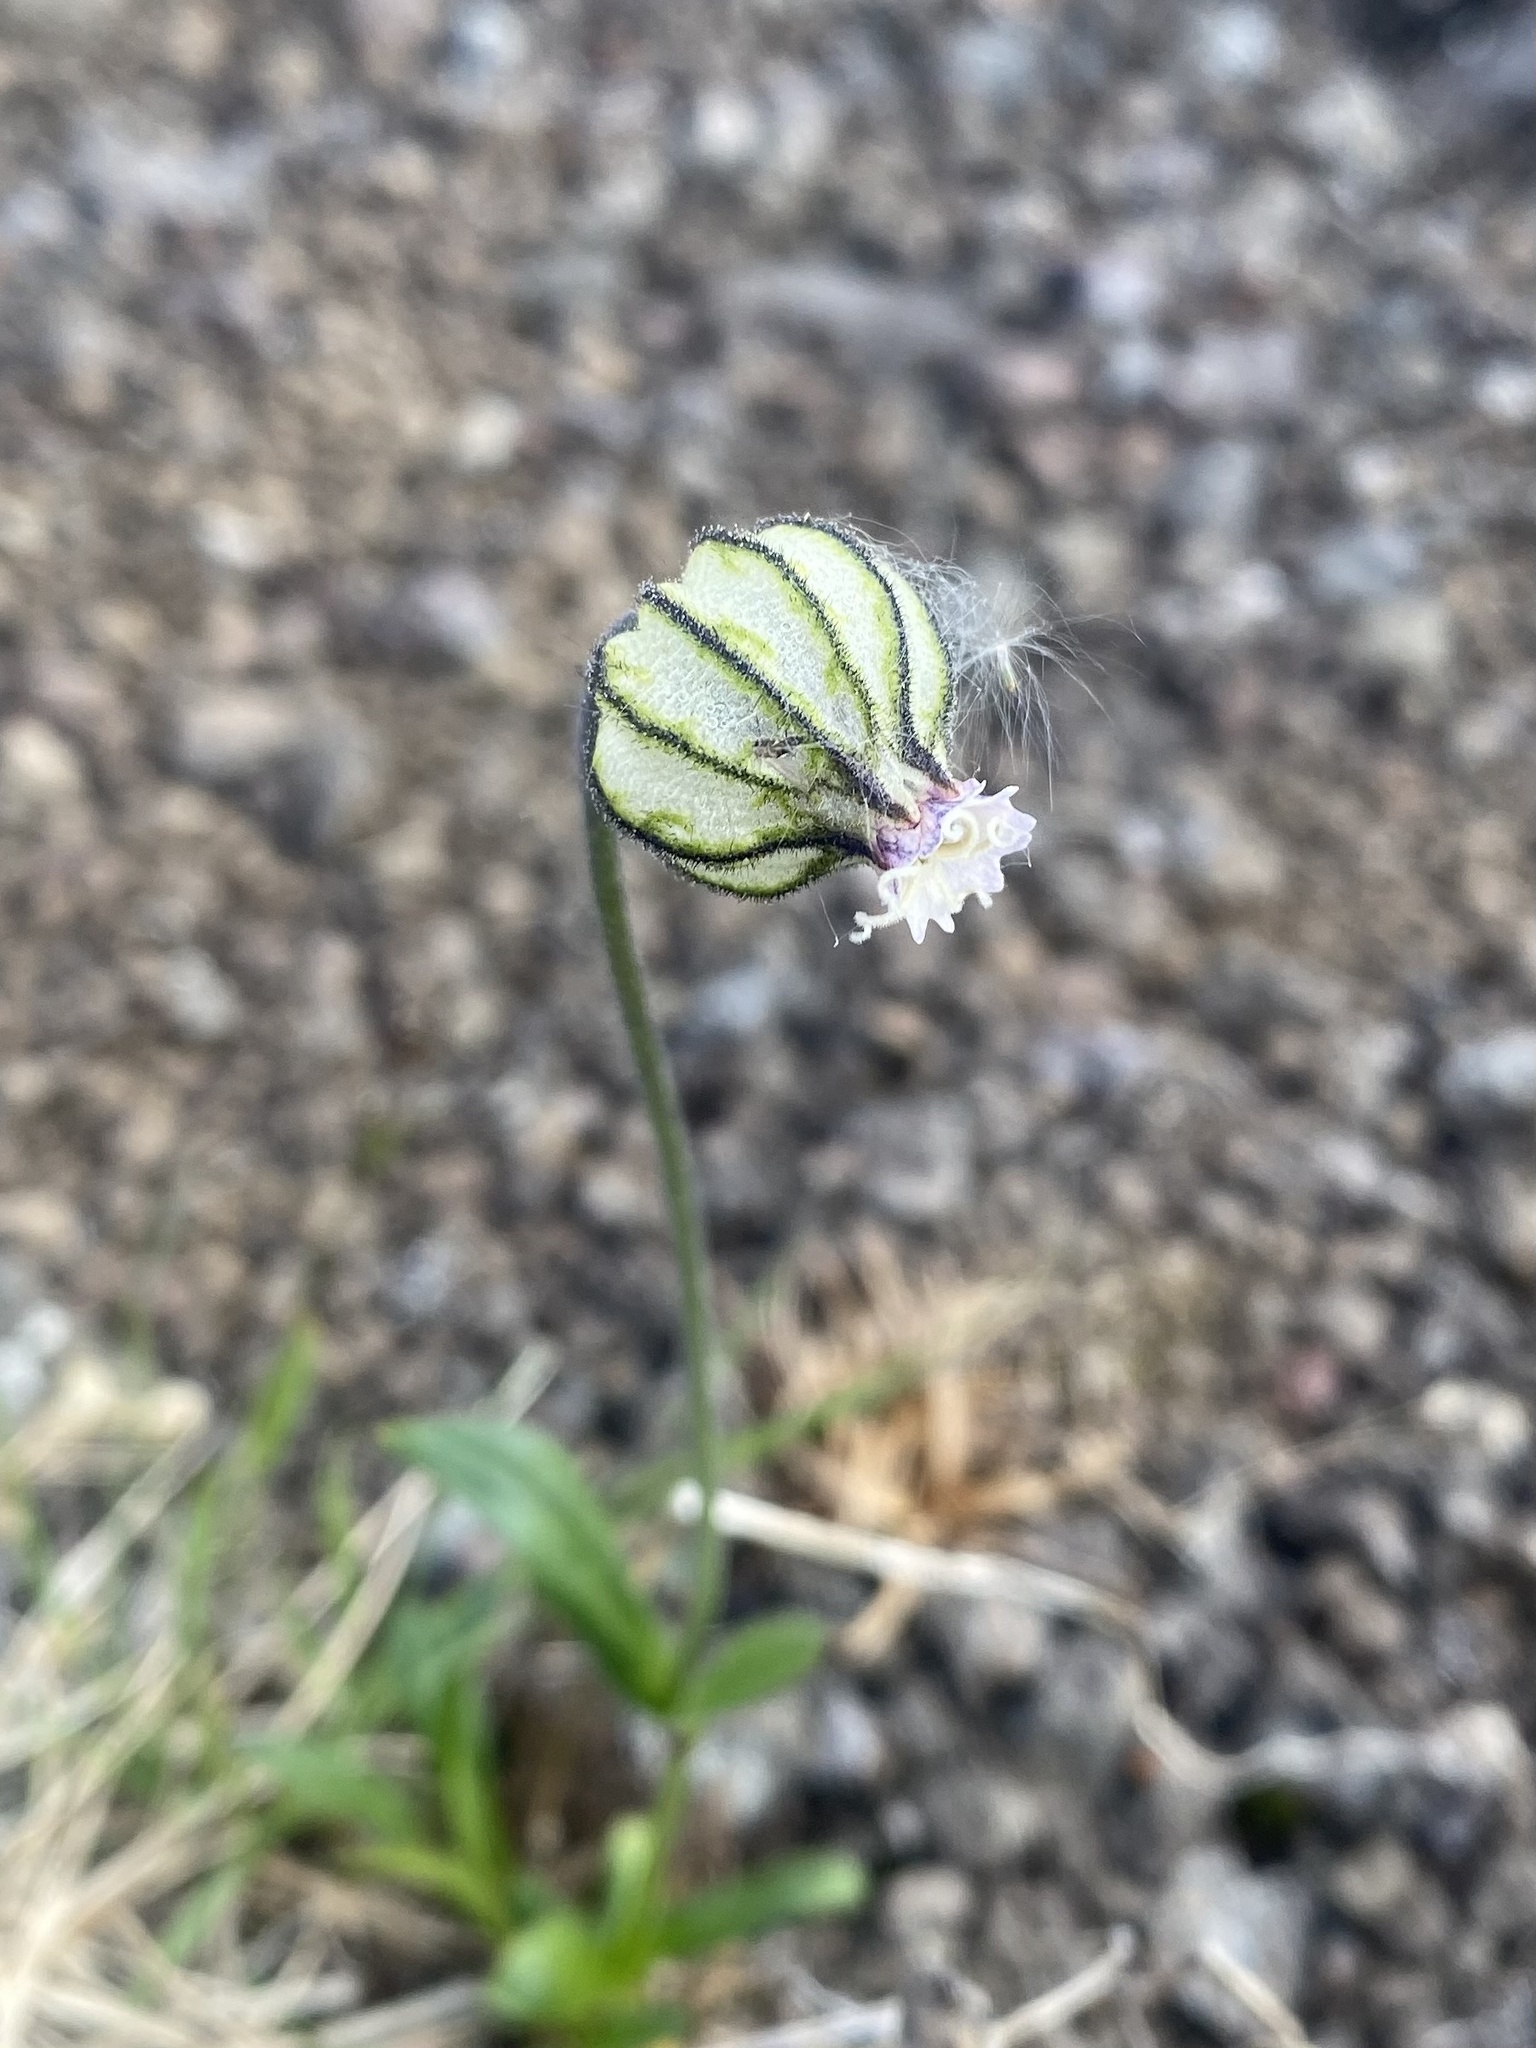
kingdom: Plantae
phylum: Tracheophyta
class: Magnoliopsida
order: Caryophyllales
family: Caryophyllaceae
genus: Silene
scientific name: Silene wahlbergella
